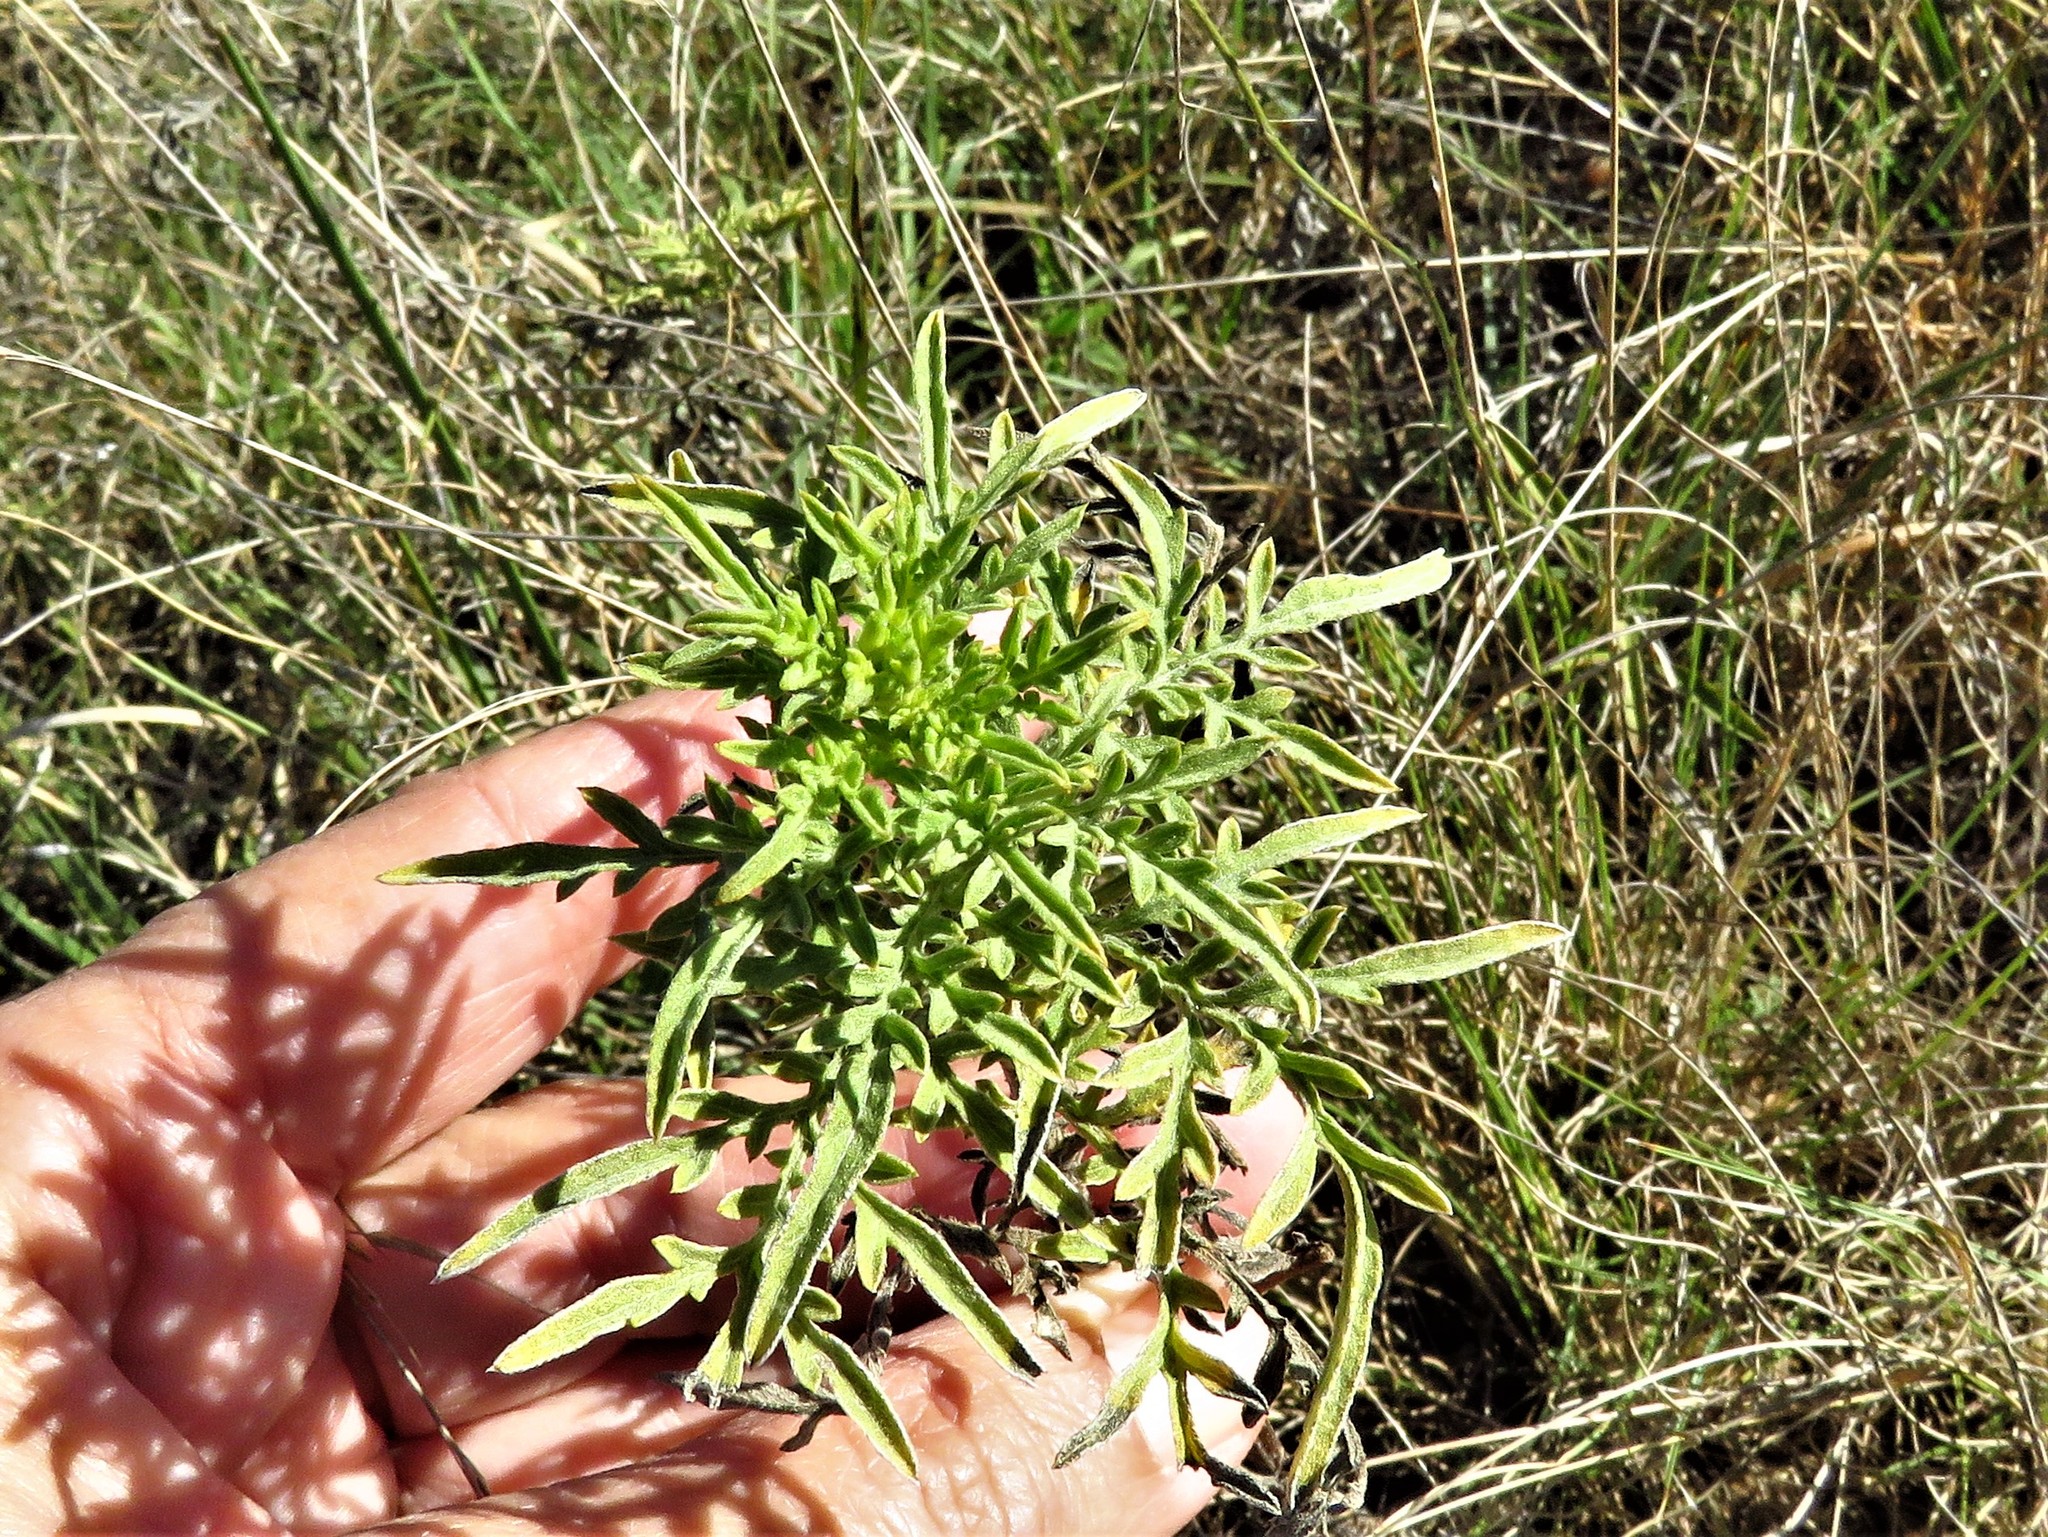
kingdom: Plantae
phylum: Tracheophyta
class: Magnoliopsida
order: Asterales
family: Asteraceae
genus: Ambrosia
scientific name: Ambrosia psilostachya
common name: Perennial ragweed
